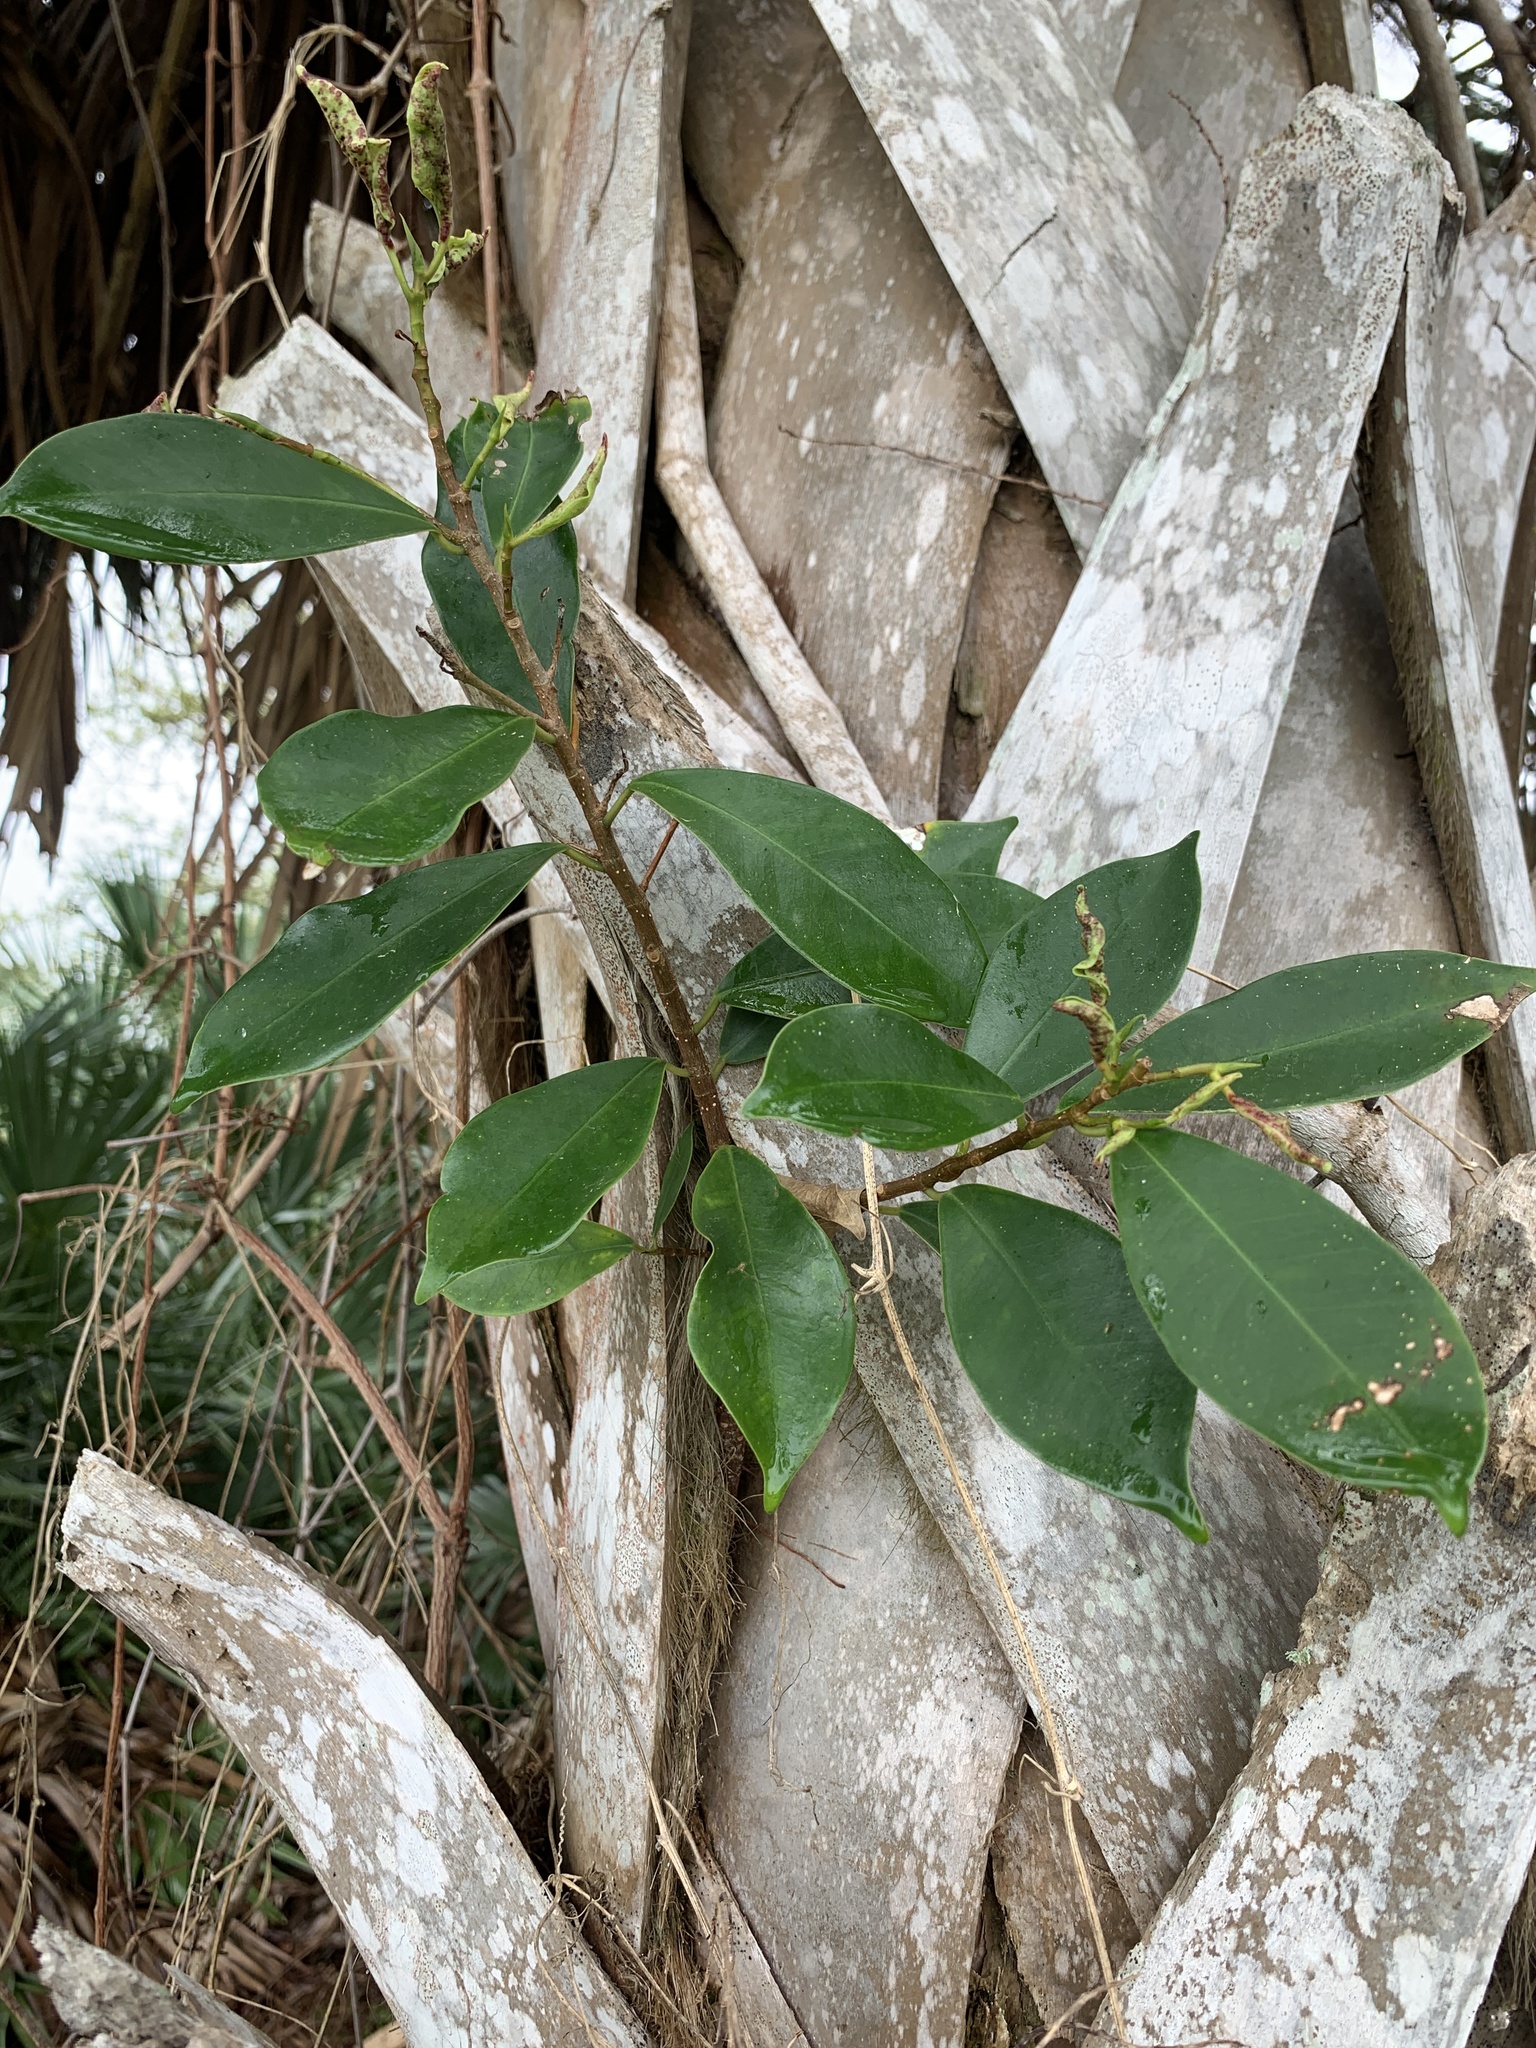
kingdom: Plantae
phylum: Tracheophyta
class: Magnoliopsida
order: Rosales
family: Moraceae
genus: Ficus
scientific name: Ficus microcarpa
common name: Chinese banyan
